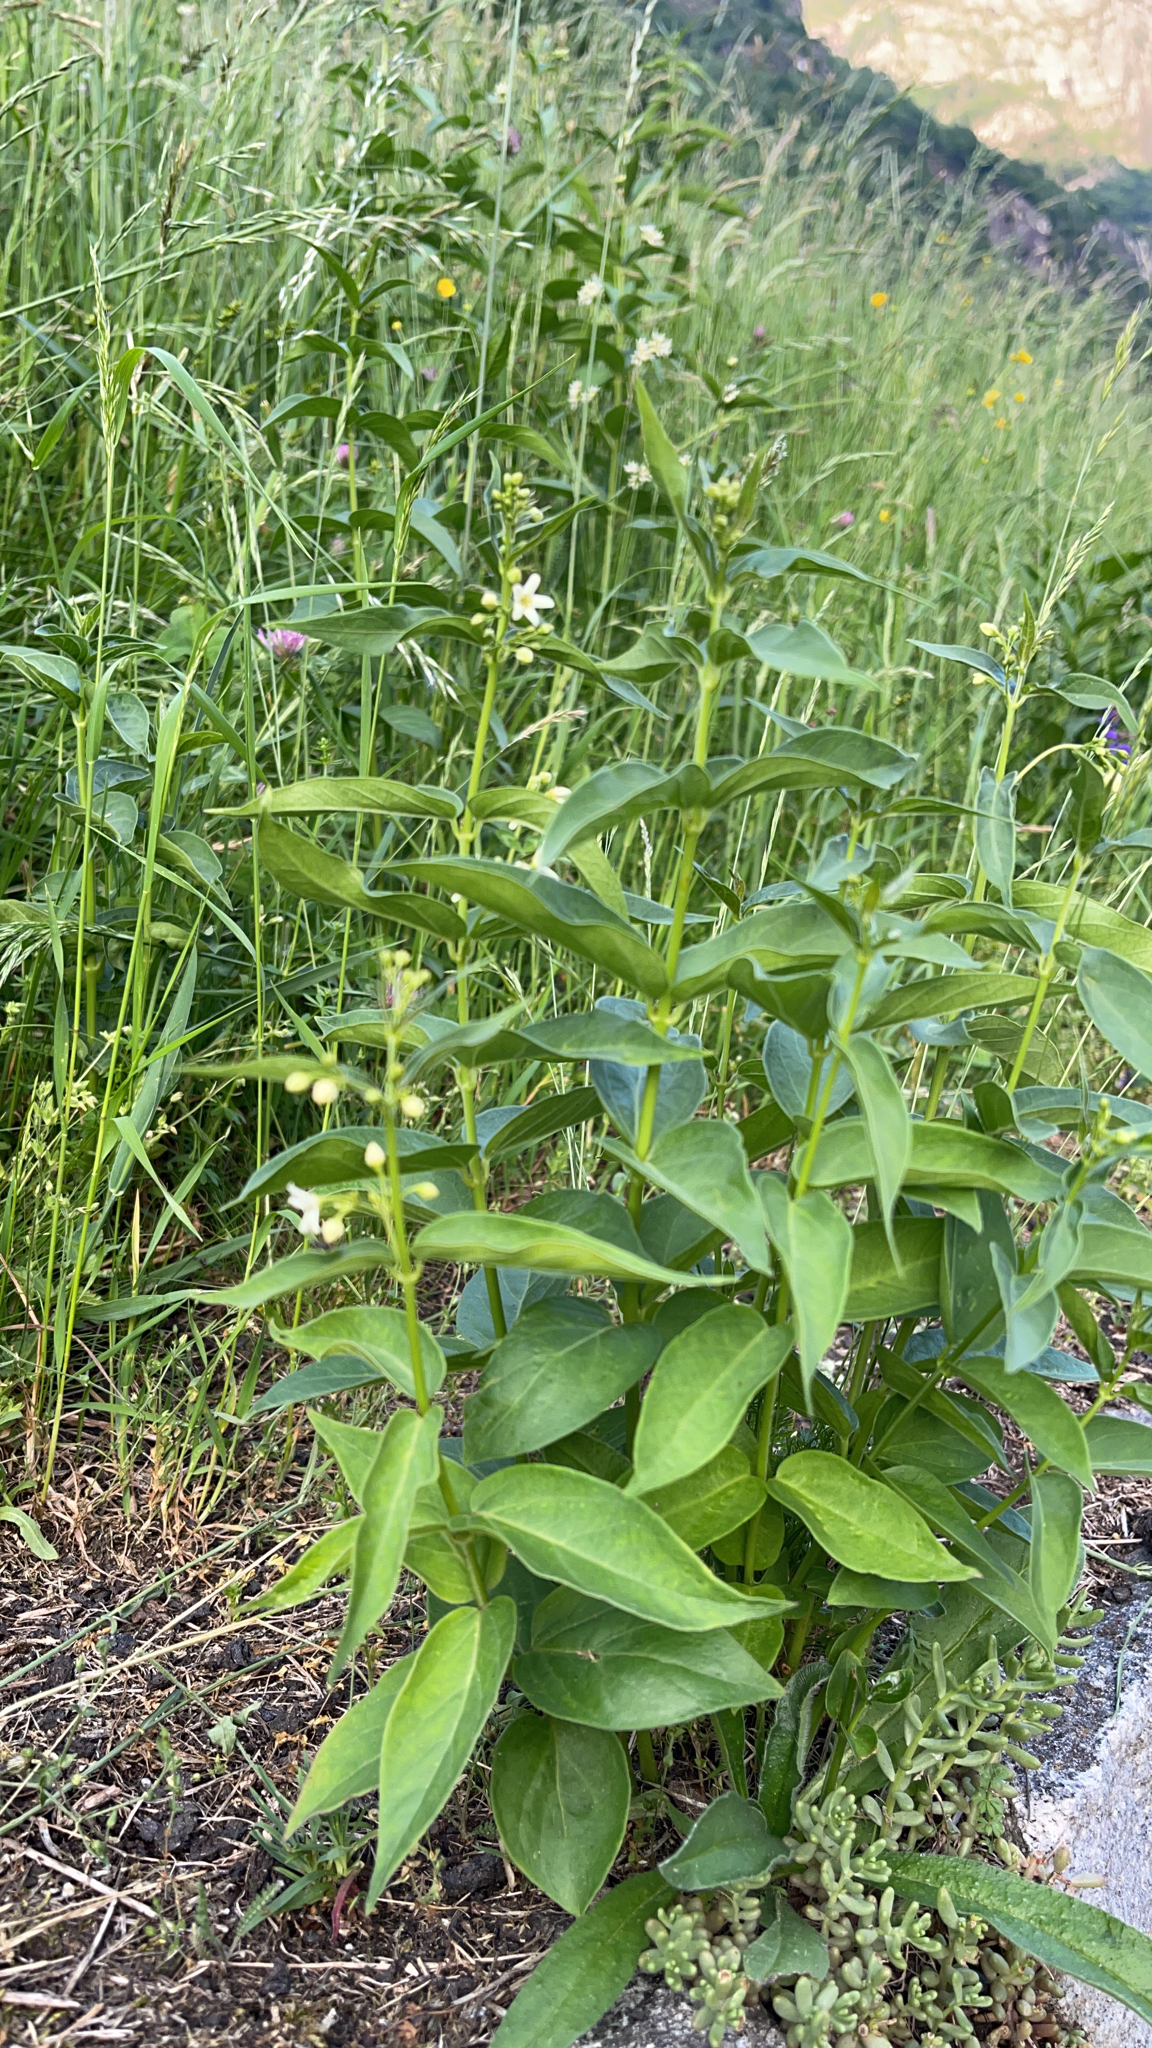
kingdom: Plantae
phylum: Tracheophyta
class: Magnoliopsida
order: Gentianales
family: Apocynaceae
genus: Vincetoxicum
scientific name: Vincetoxicum hirundinaria
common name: White swallowwort
